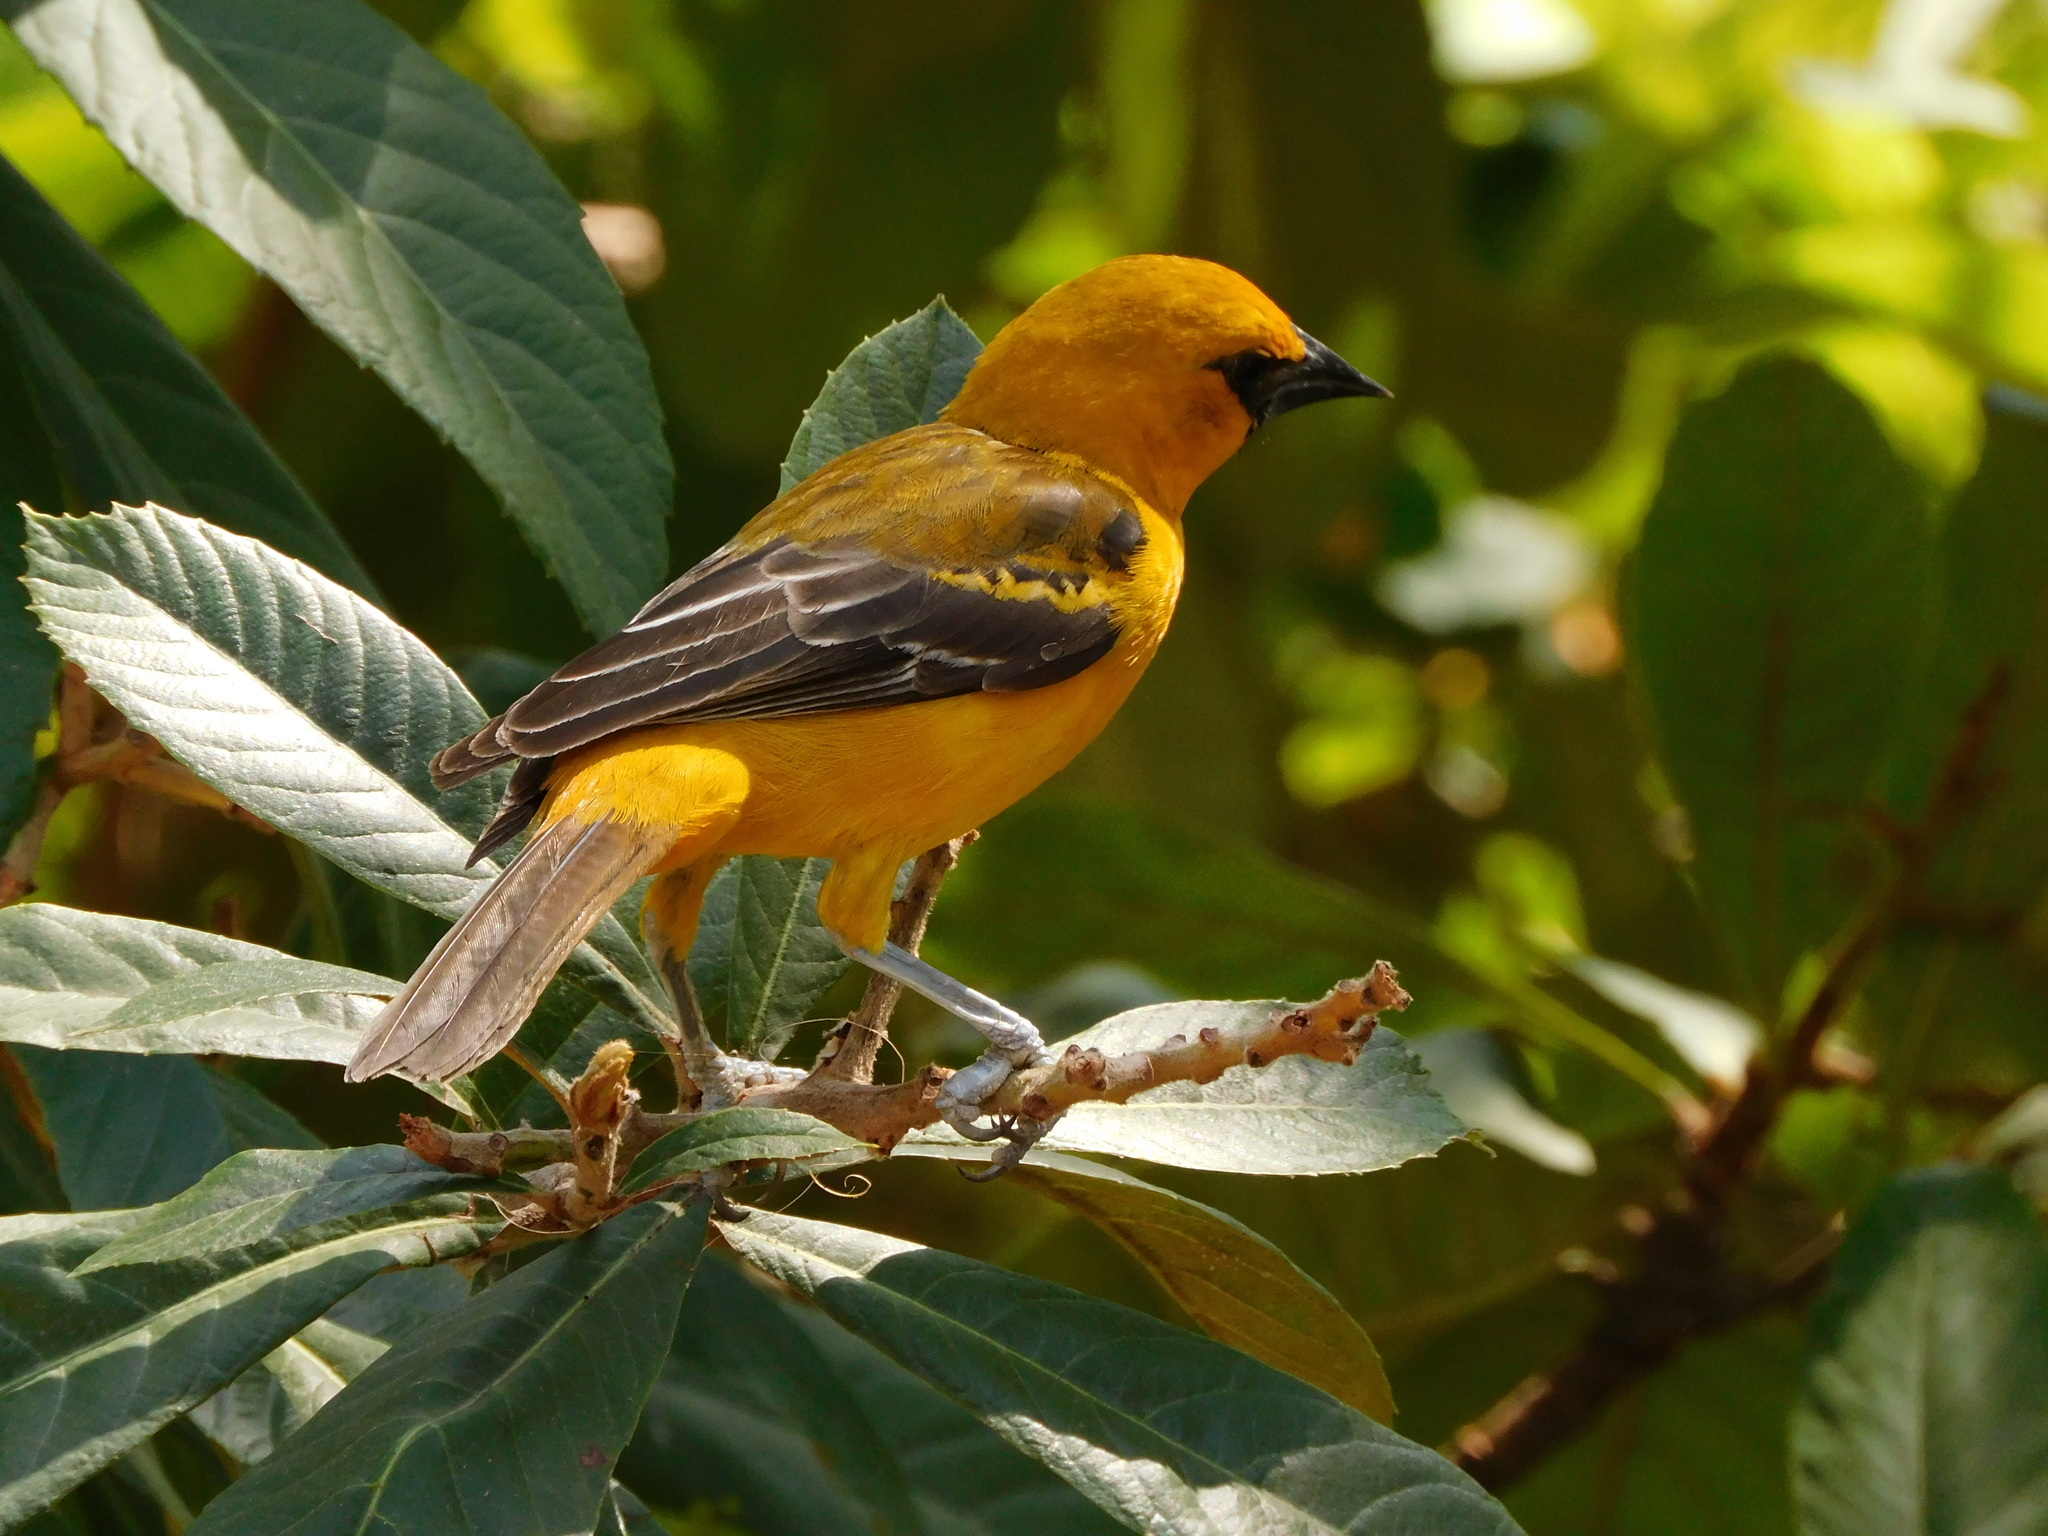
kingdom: Animalia
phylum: Chordata
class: Aves
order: Passeriformes
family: Icteridae
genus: Icterus
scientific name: Icterus gularis
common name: Altamira oriole
